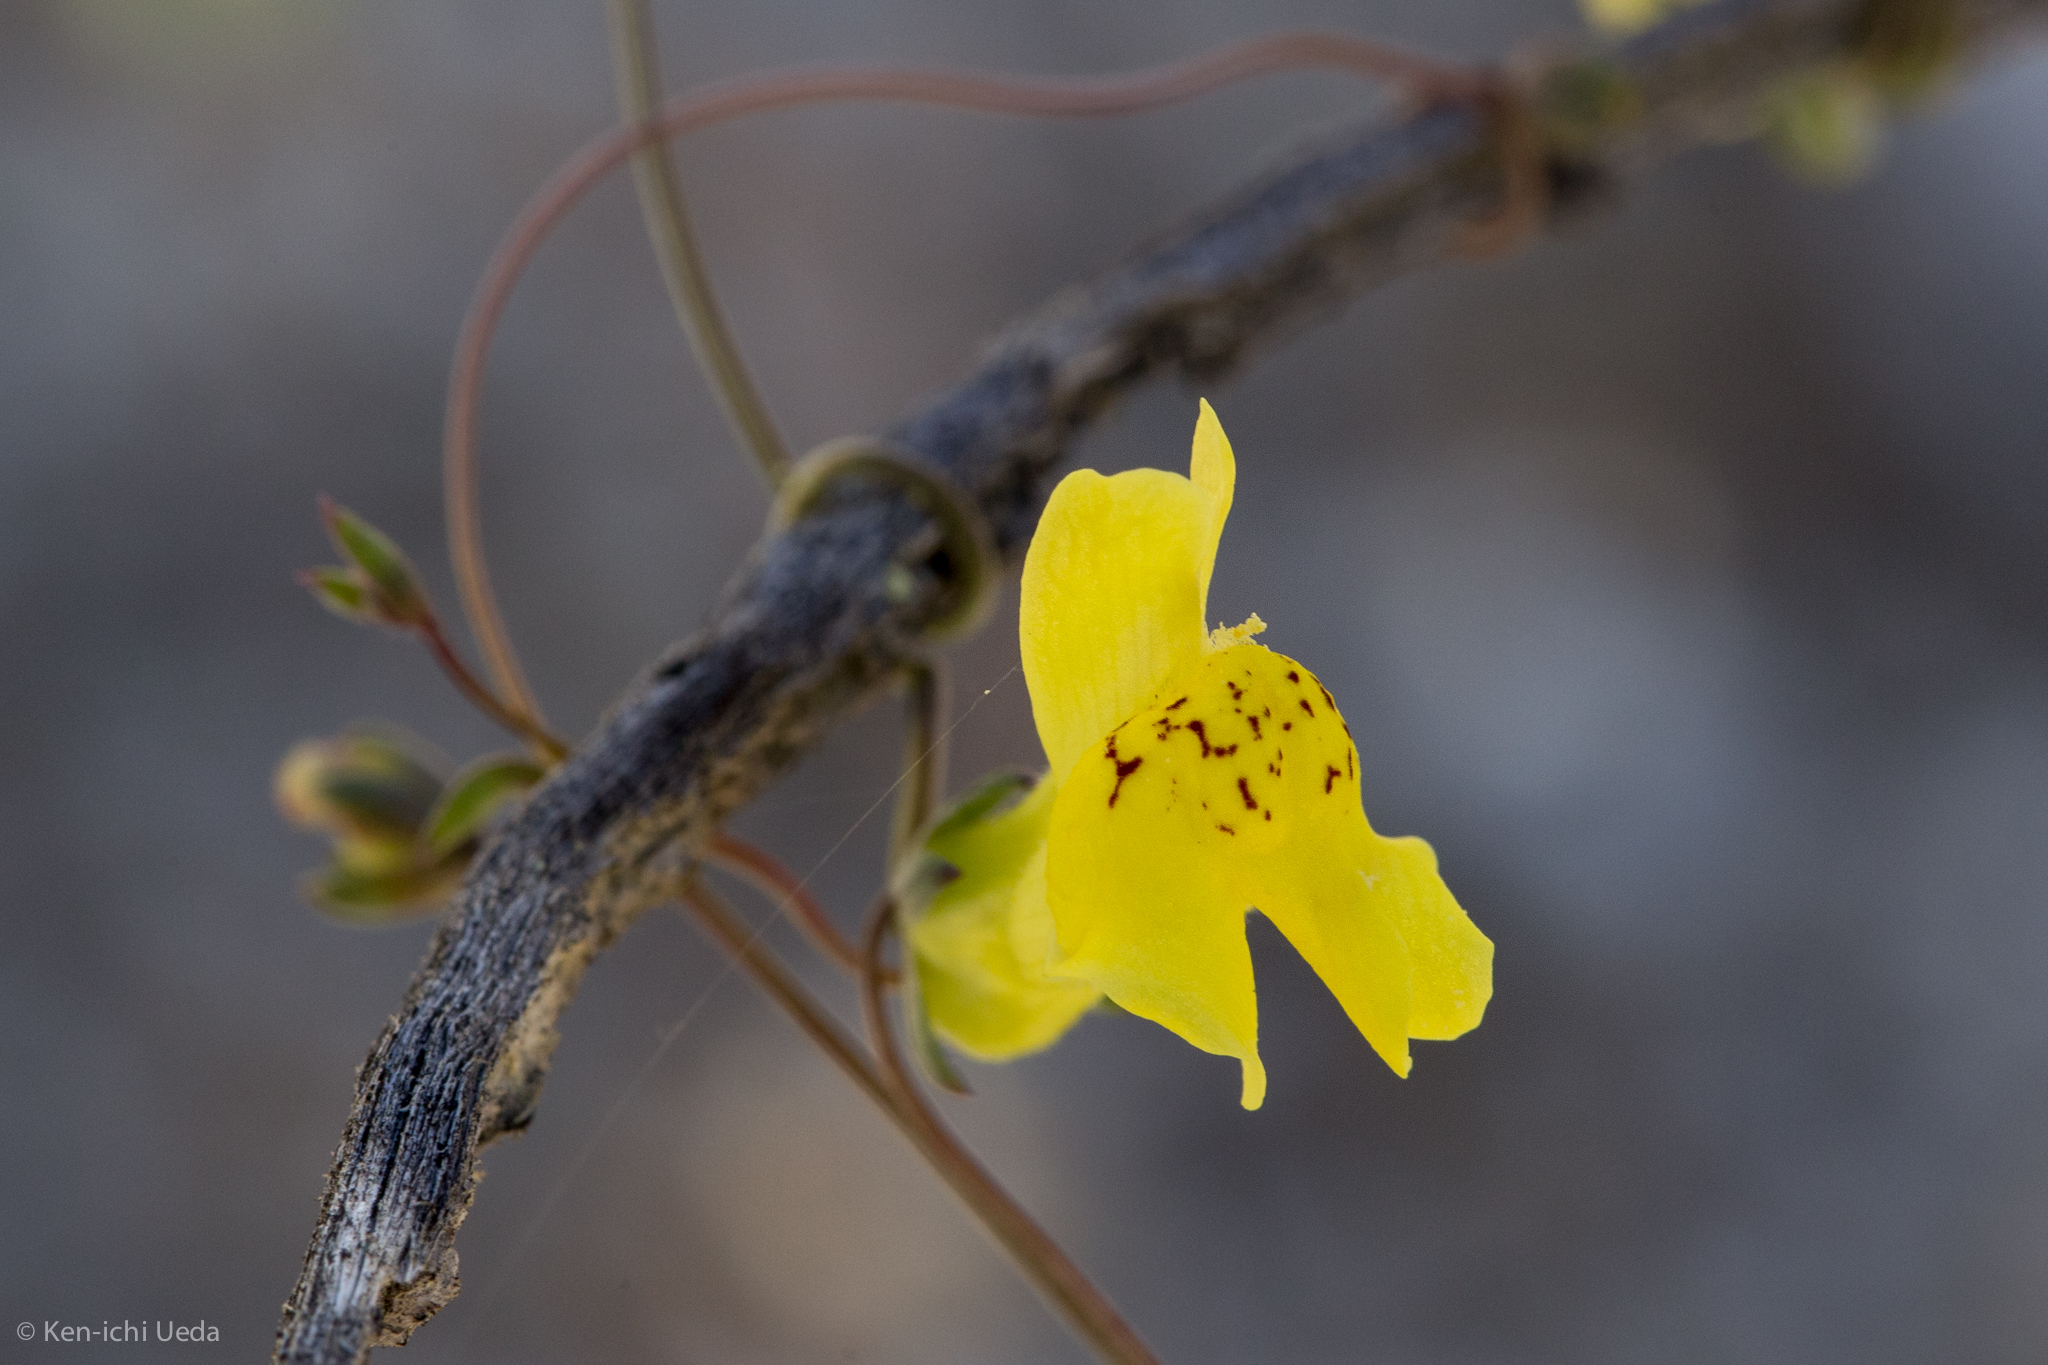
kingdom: Plantae
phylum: Tracheophyta
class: Magnoliopsida
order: Lamiales
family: Plantaginaceae
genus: Neogaerrhinum
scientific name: Neogaerrhinum filipes
